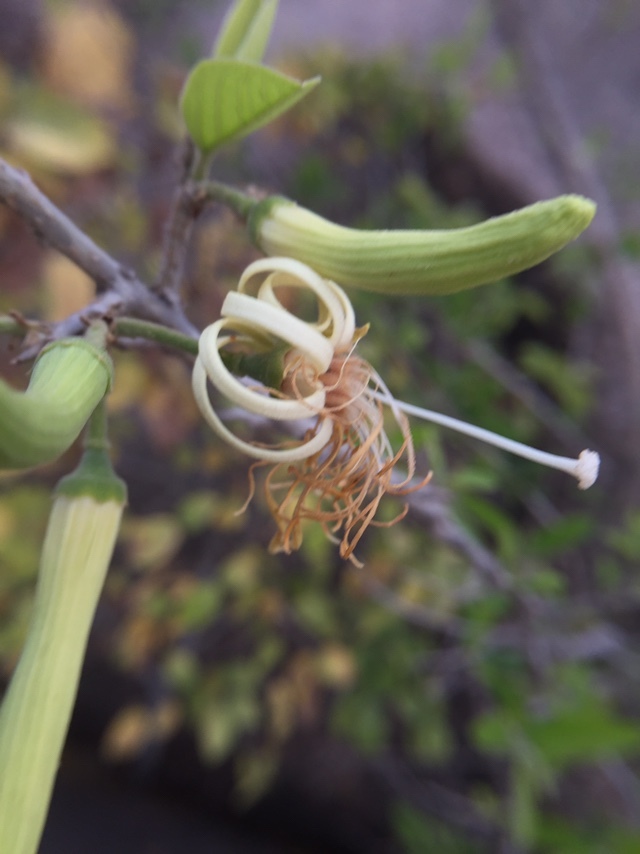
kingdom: Plantae
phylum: Tracheophyta
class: Magnoliopsida
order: Cornales
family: Cornaceae
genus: Alangium
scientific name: Alangium salviifolium
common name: Sage-leaf alangium
